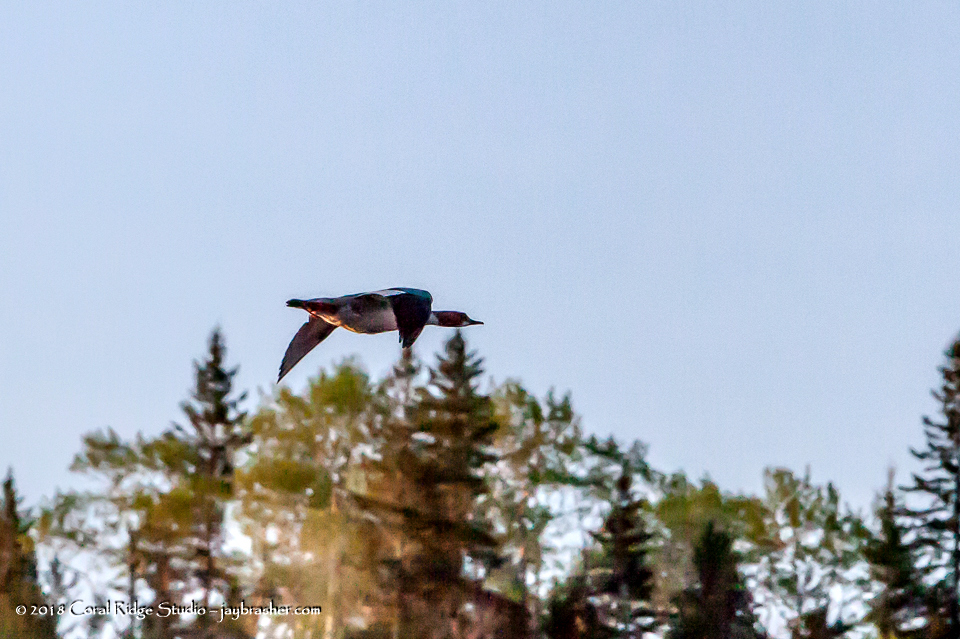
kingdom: Animalia
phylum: Chordata
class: Aves
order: Anseriformes
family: Anatidae
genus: Mergus
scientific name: Mergus merganser
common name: Common merganser
